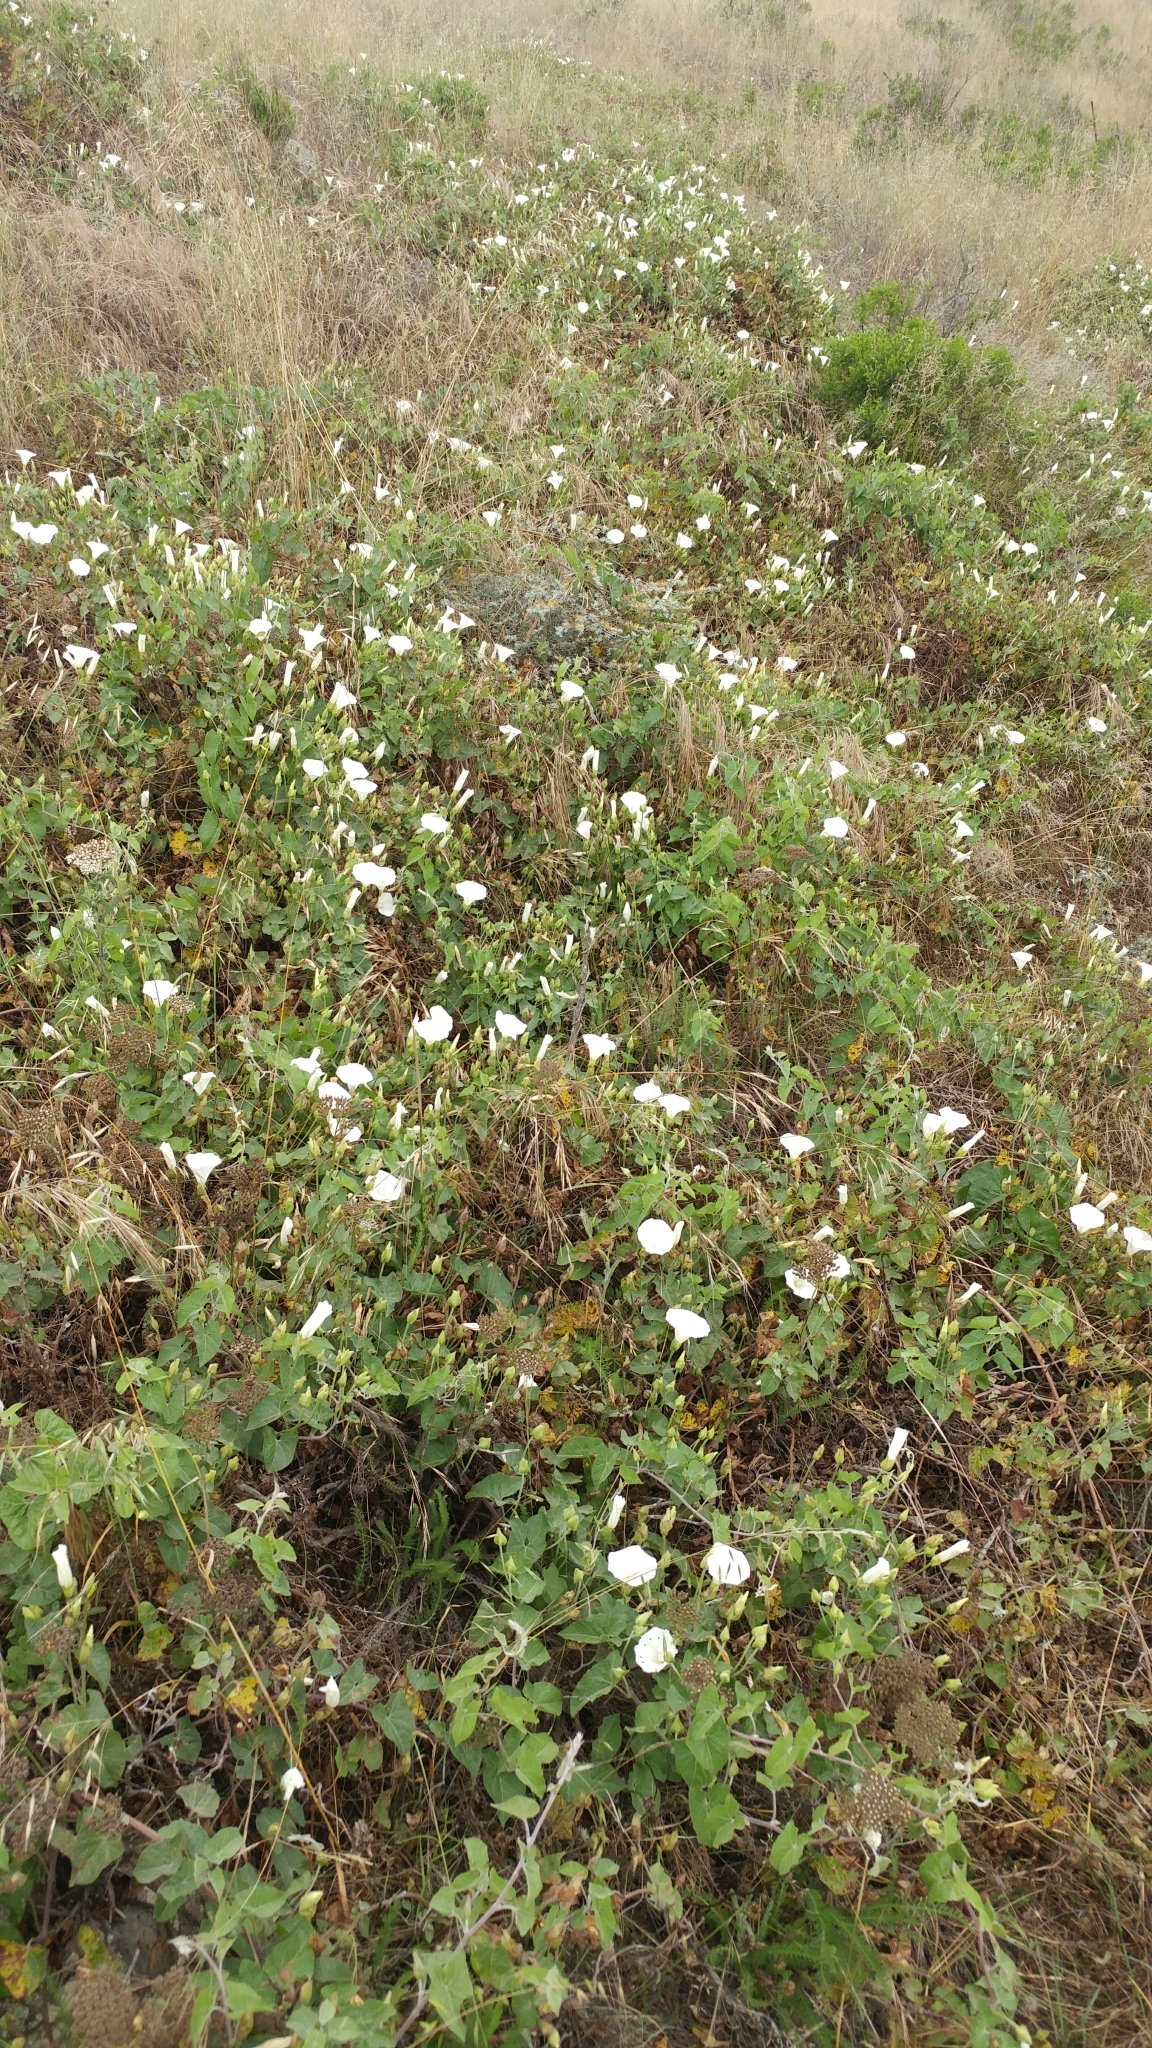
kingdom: Plantae
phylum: Tracheophyta
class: Magnoliopsida
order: Solanales
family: Convolvulaceae
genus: Calystegia
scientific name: Calystegia macrostegia
